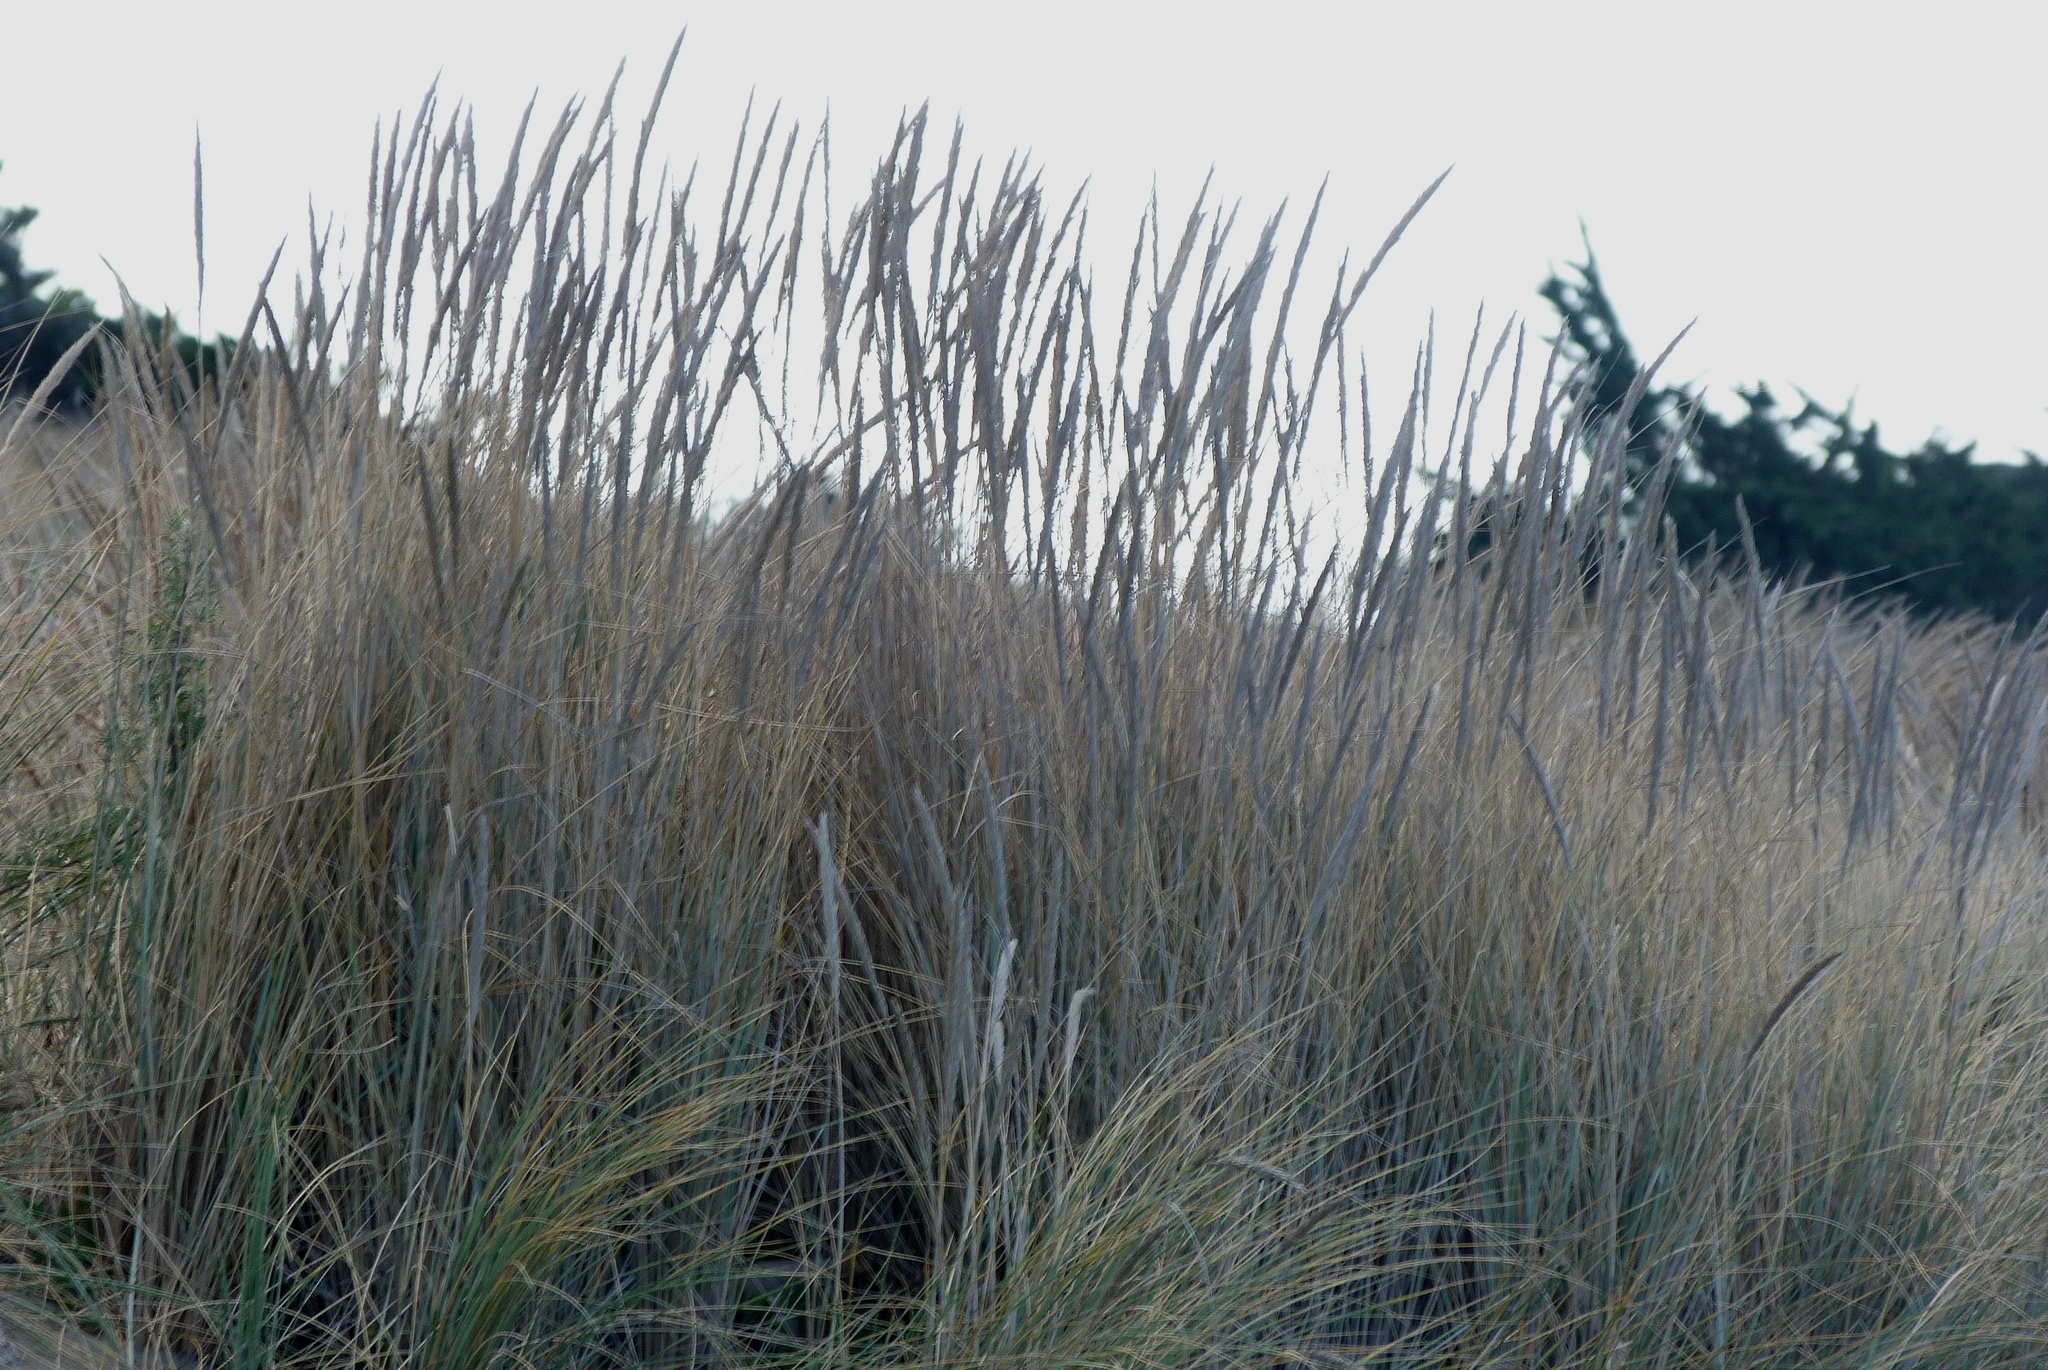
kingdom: Plantae
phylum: Tracheophyta
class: Liliopsida
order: Poales
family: Poaceae
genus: Calamagrostis
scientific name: Calamagrostis arenaria
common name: European beachgrass
